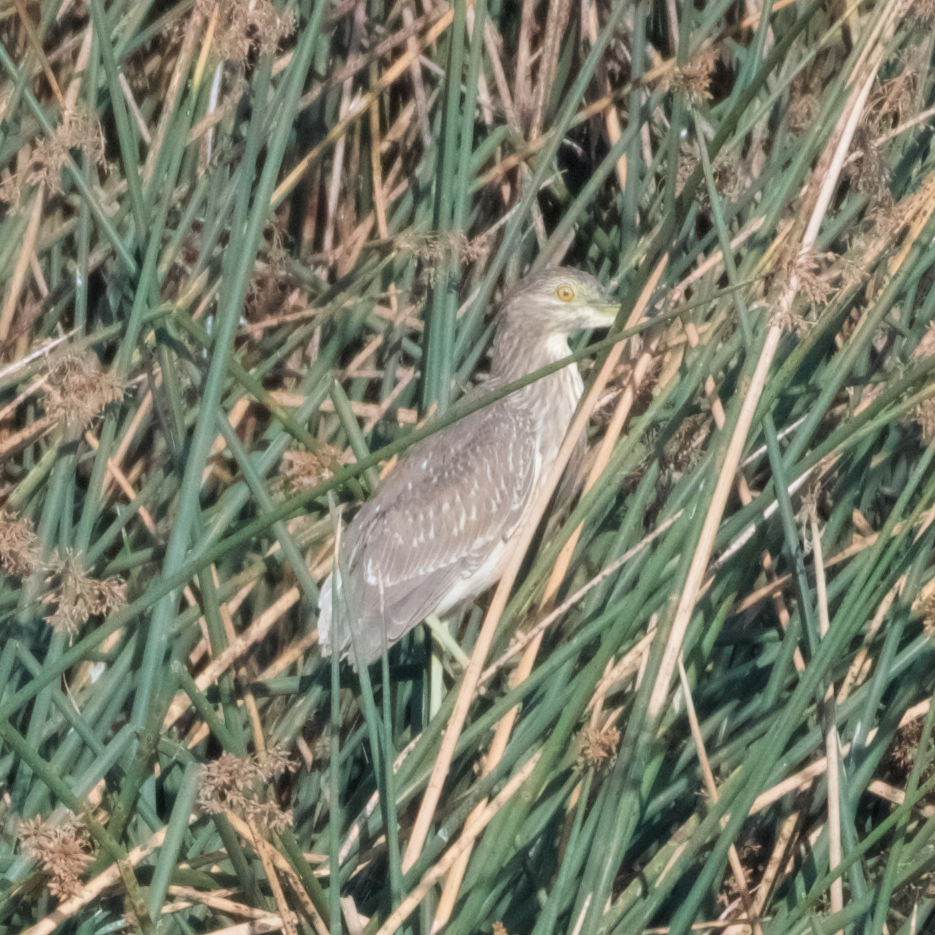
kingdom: Animalia
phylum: Chordata
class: Aves
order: Pelecaniformes
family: Ardeidae
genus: Nycticorax
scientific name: Nycticorax nycticorax
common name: Black-crowned night heron
